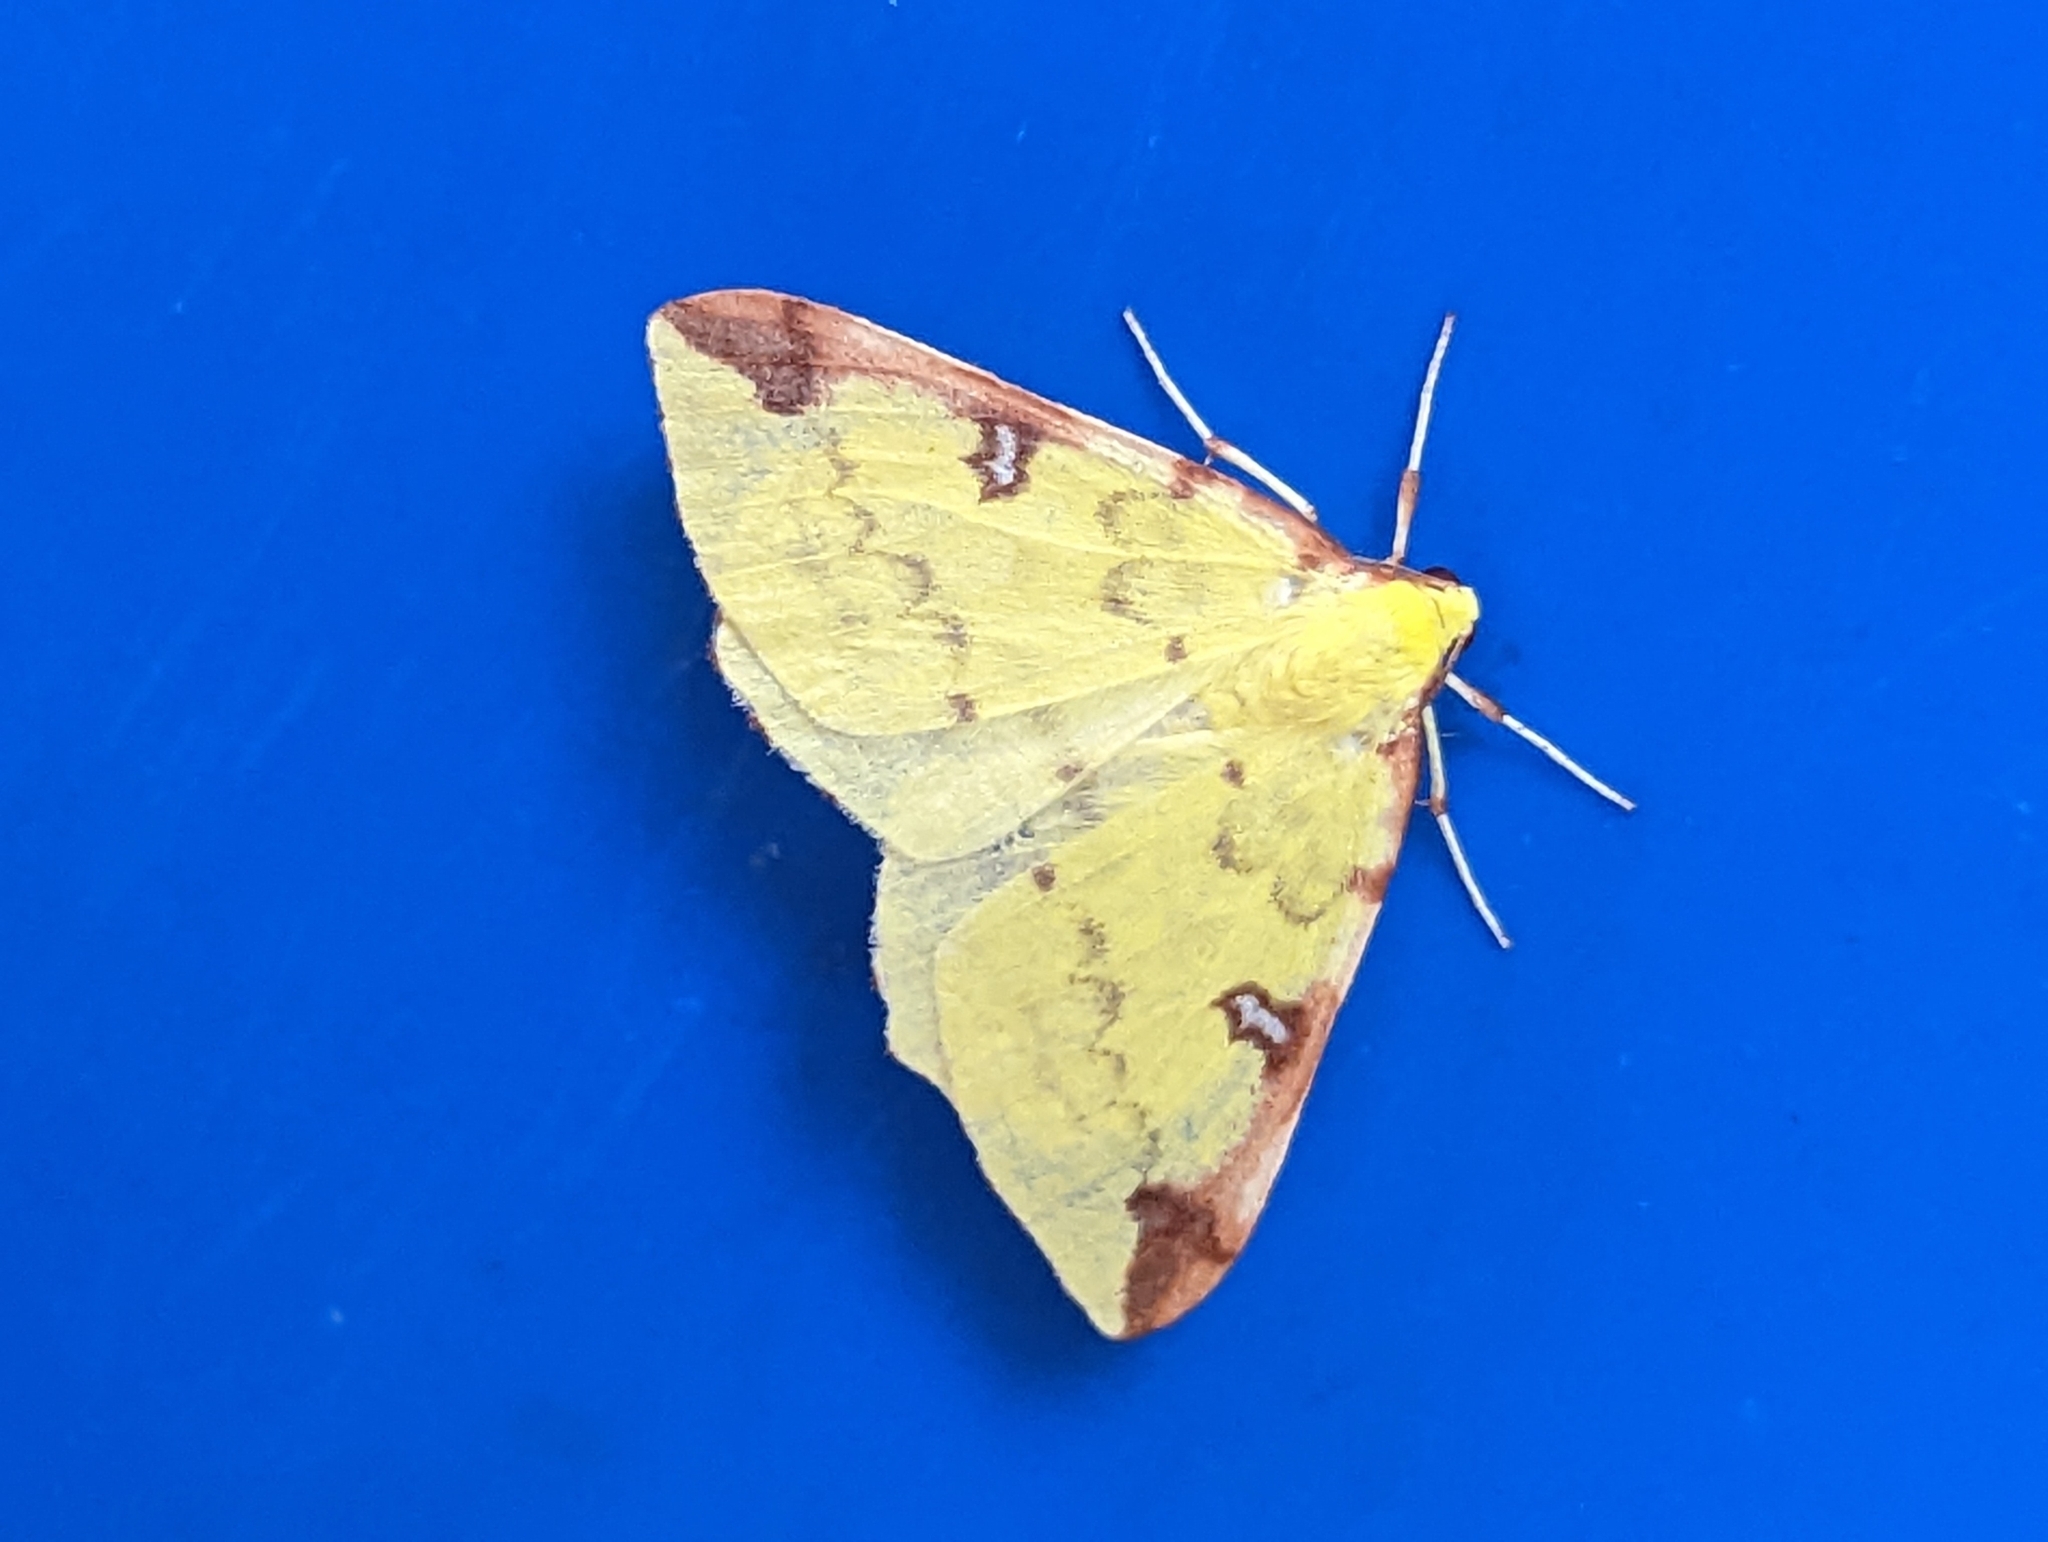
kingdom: Animalia
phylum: Arthropoda
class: Insecta
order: Lepidoptera
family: Geometridae
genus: Opisthograptis
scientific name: Opisthograptis luteolata
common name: Brimstone moth
